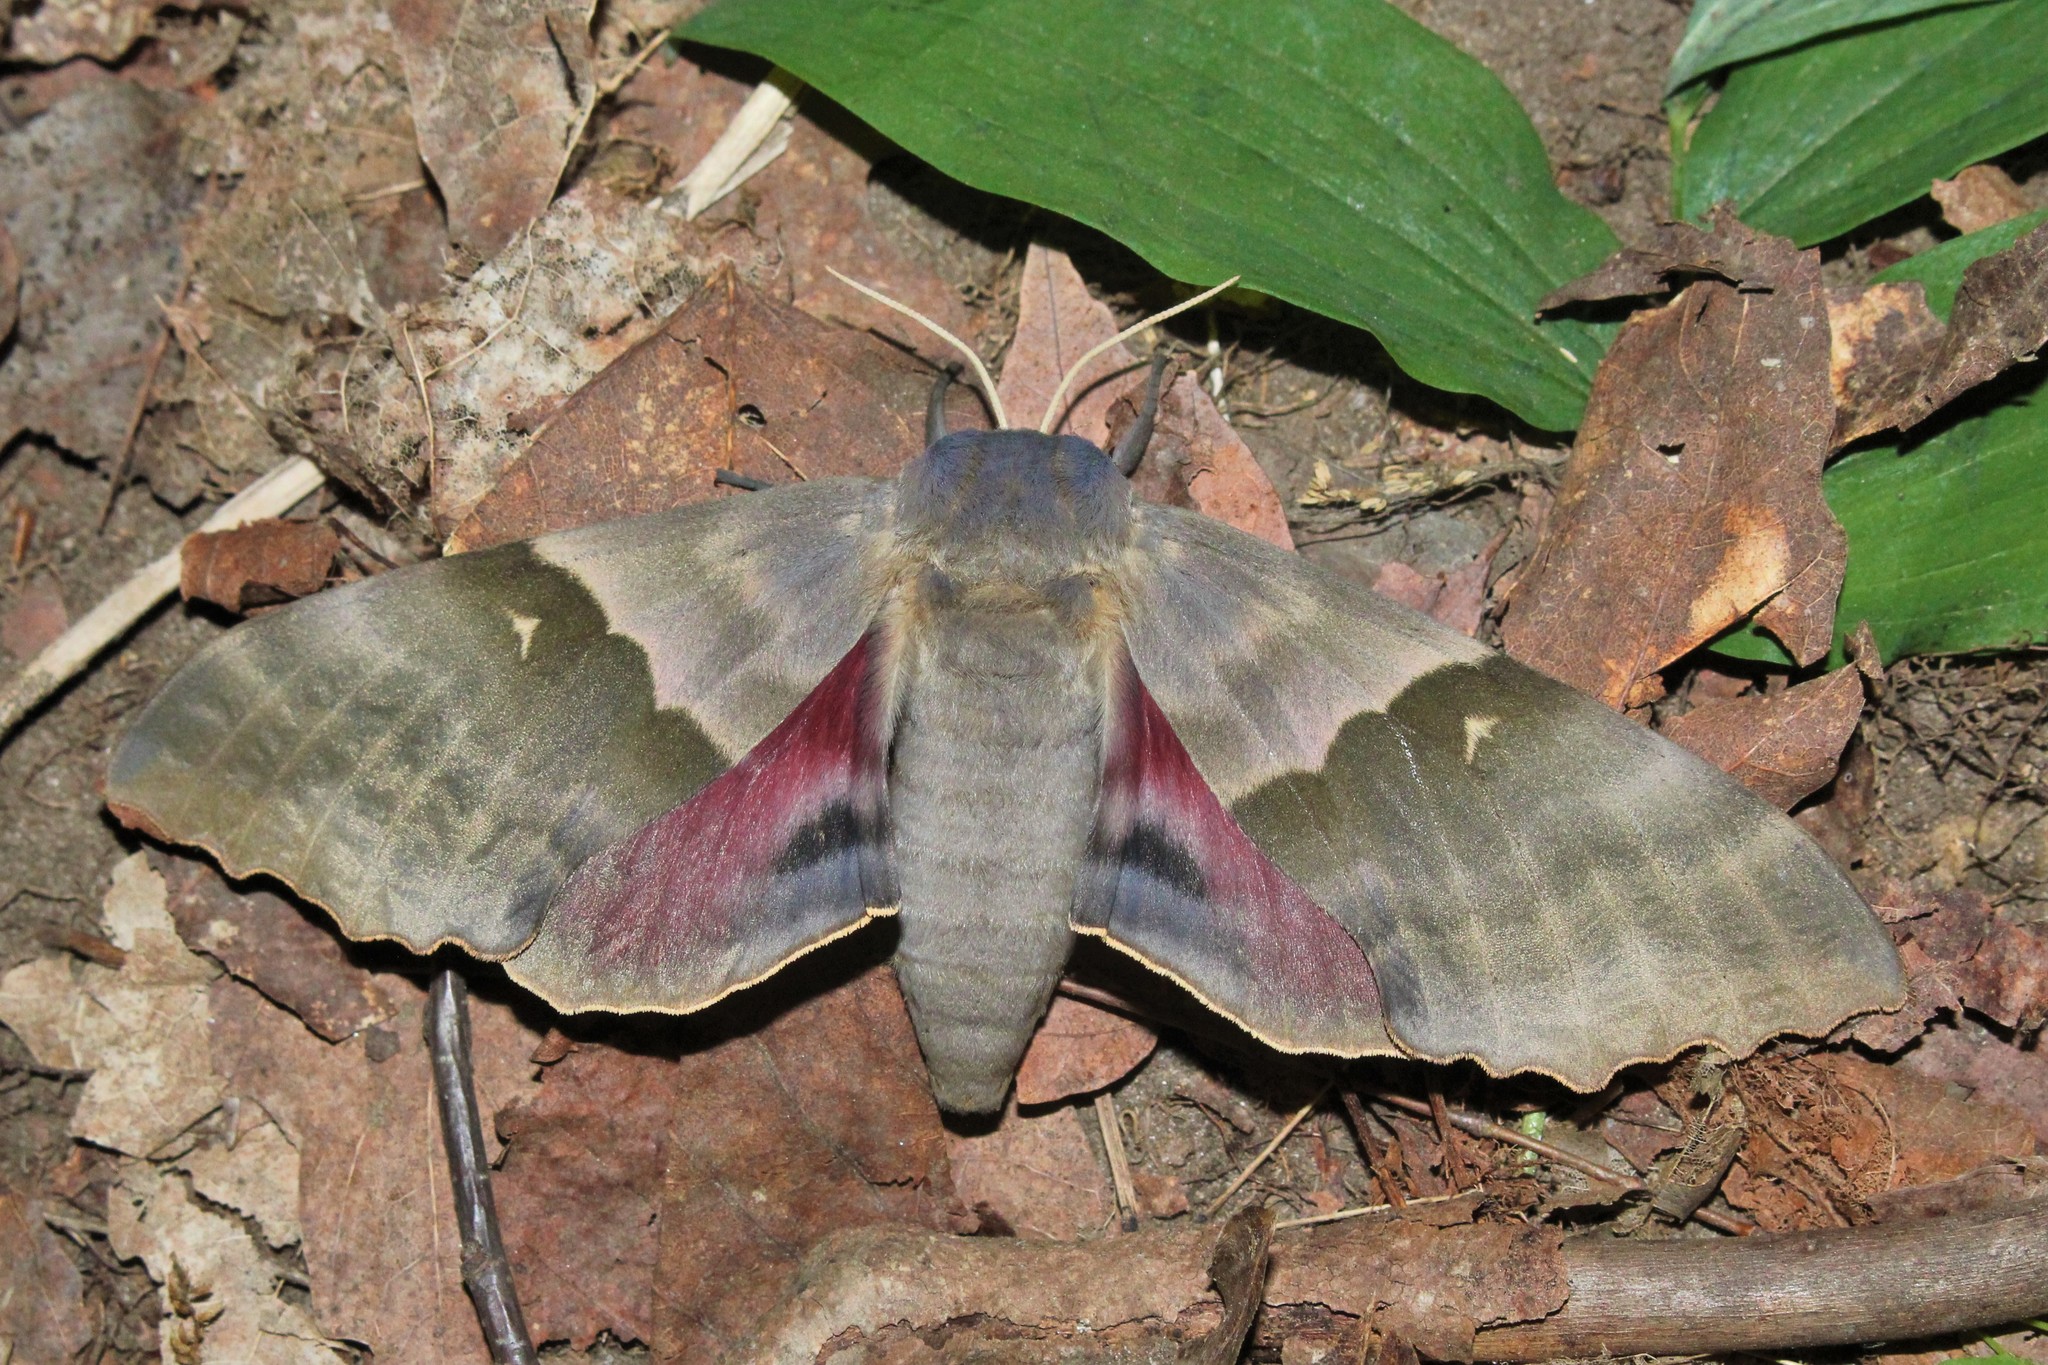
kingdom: Animalia
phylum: Arthropoda
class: Insecta
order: Lepidoptera
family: Sphingidae
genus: Pachysphinx
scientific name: Pachysphinx modesta
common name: Big poplar sphinx
